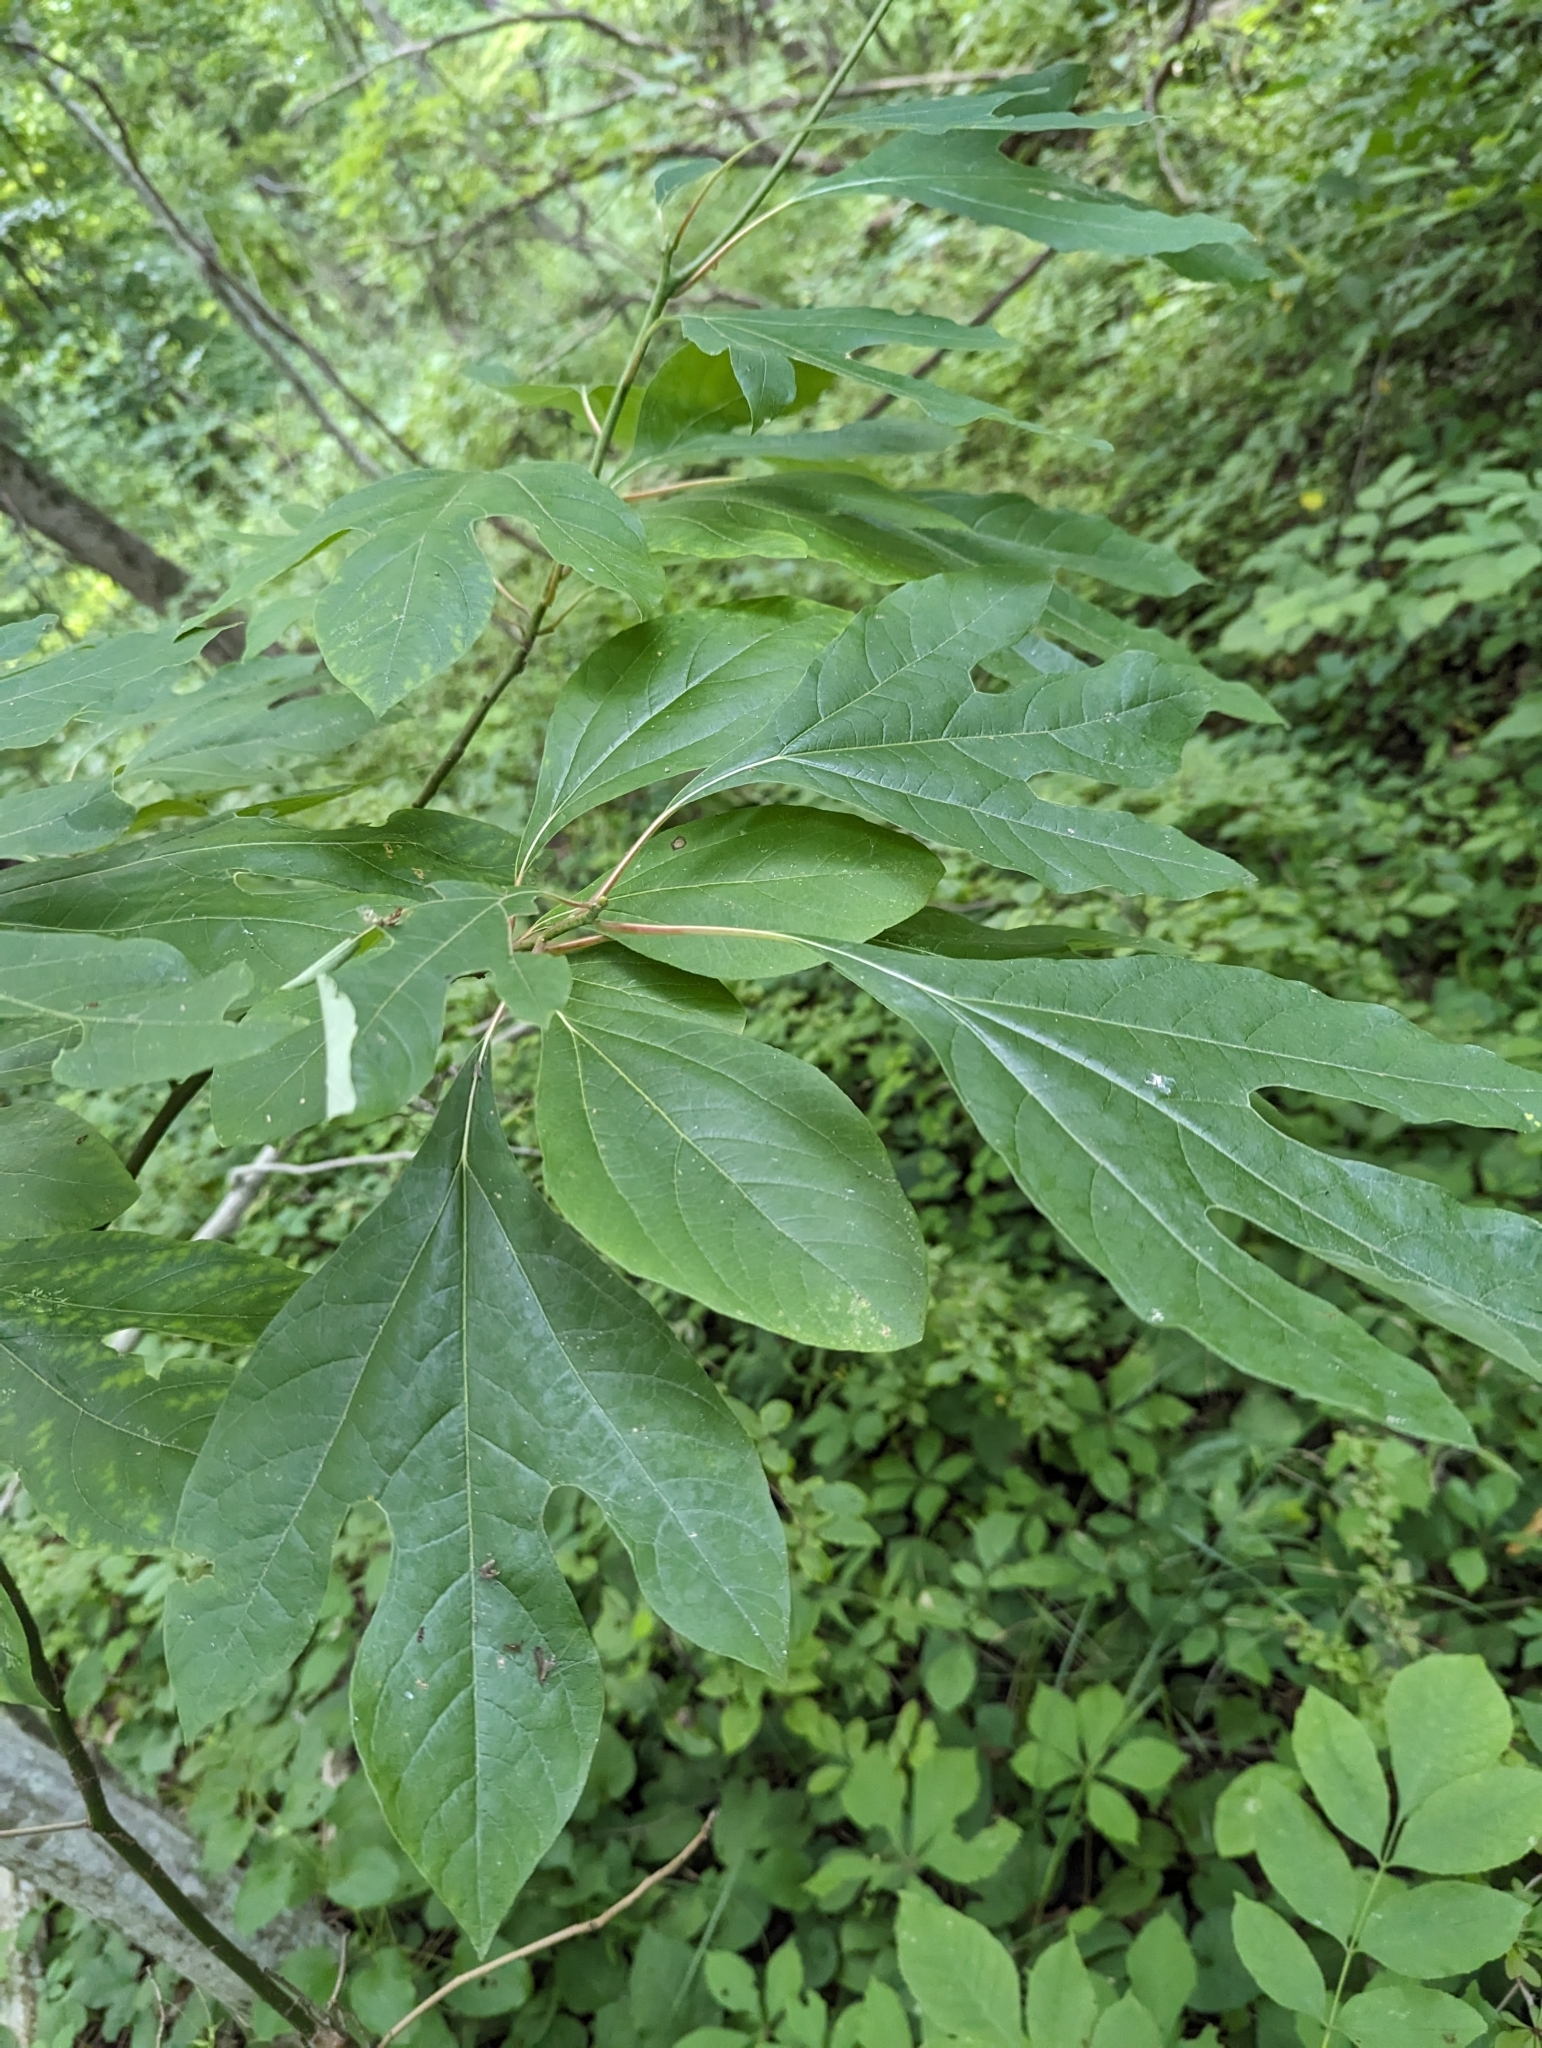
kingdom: Plantae
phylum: Tracheophyta
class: Magnoliopsida
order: Laurales
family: Lauraceae
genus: Sassafras
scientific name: Sassafras albidum
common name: Sassafras
